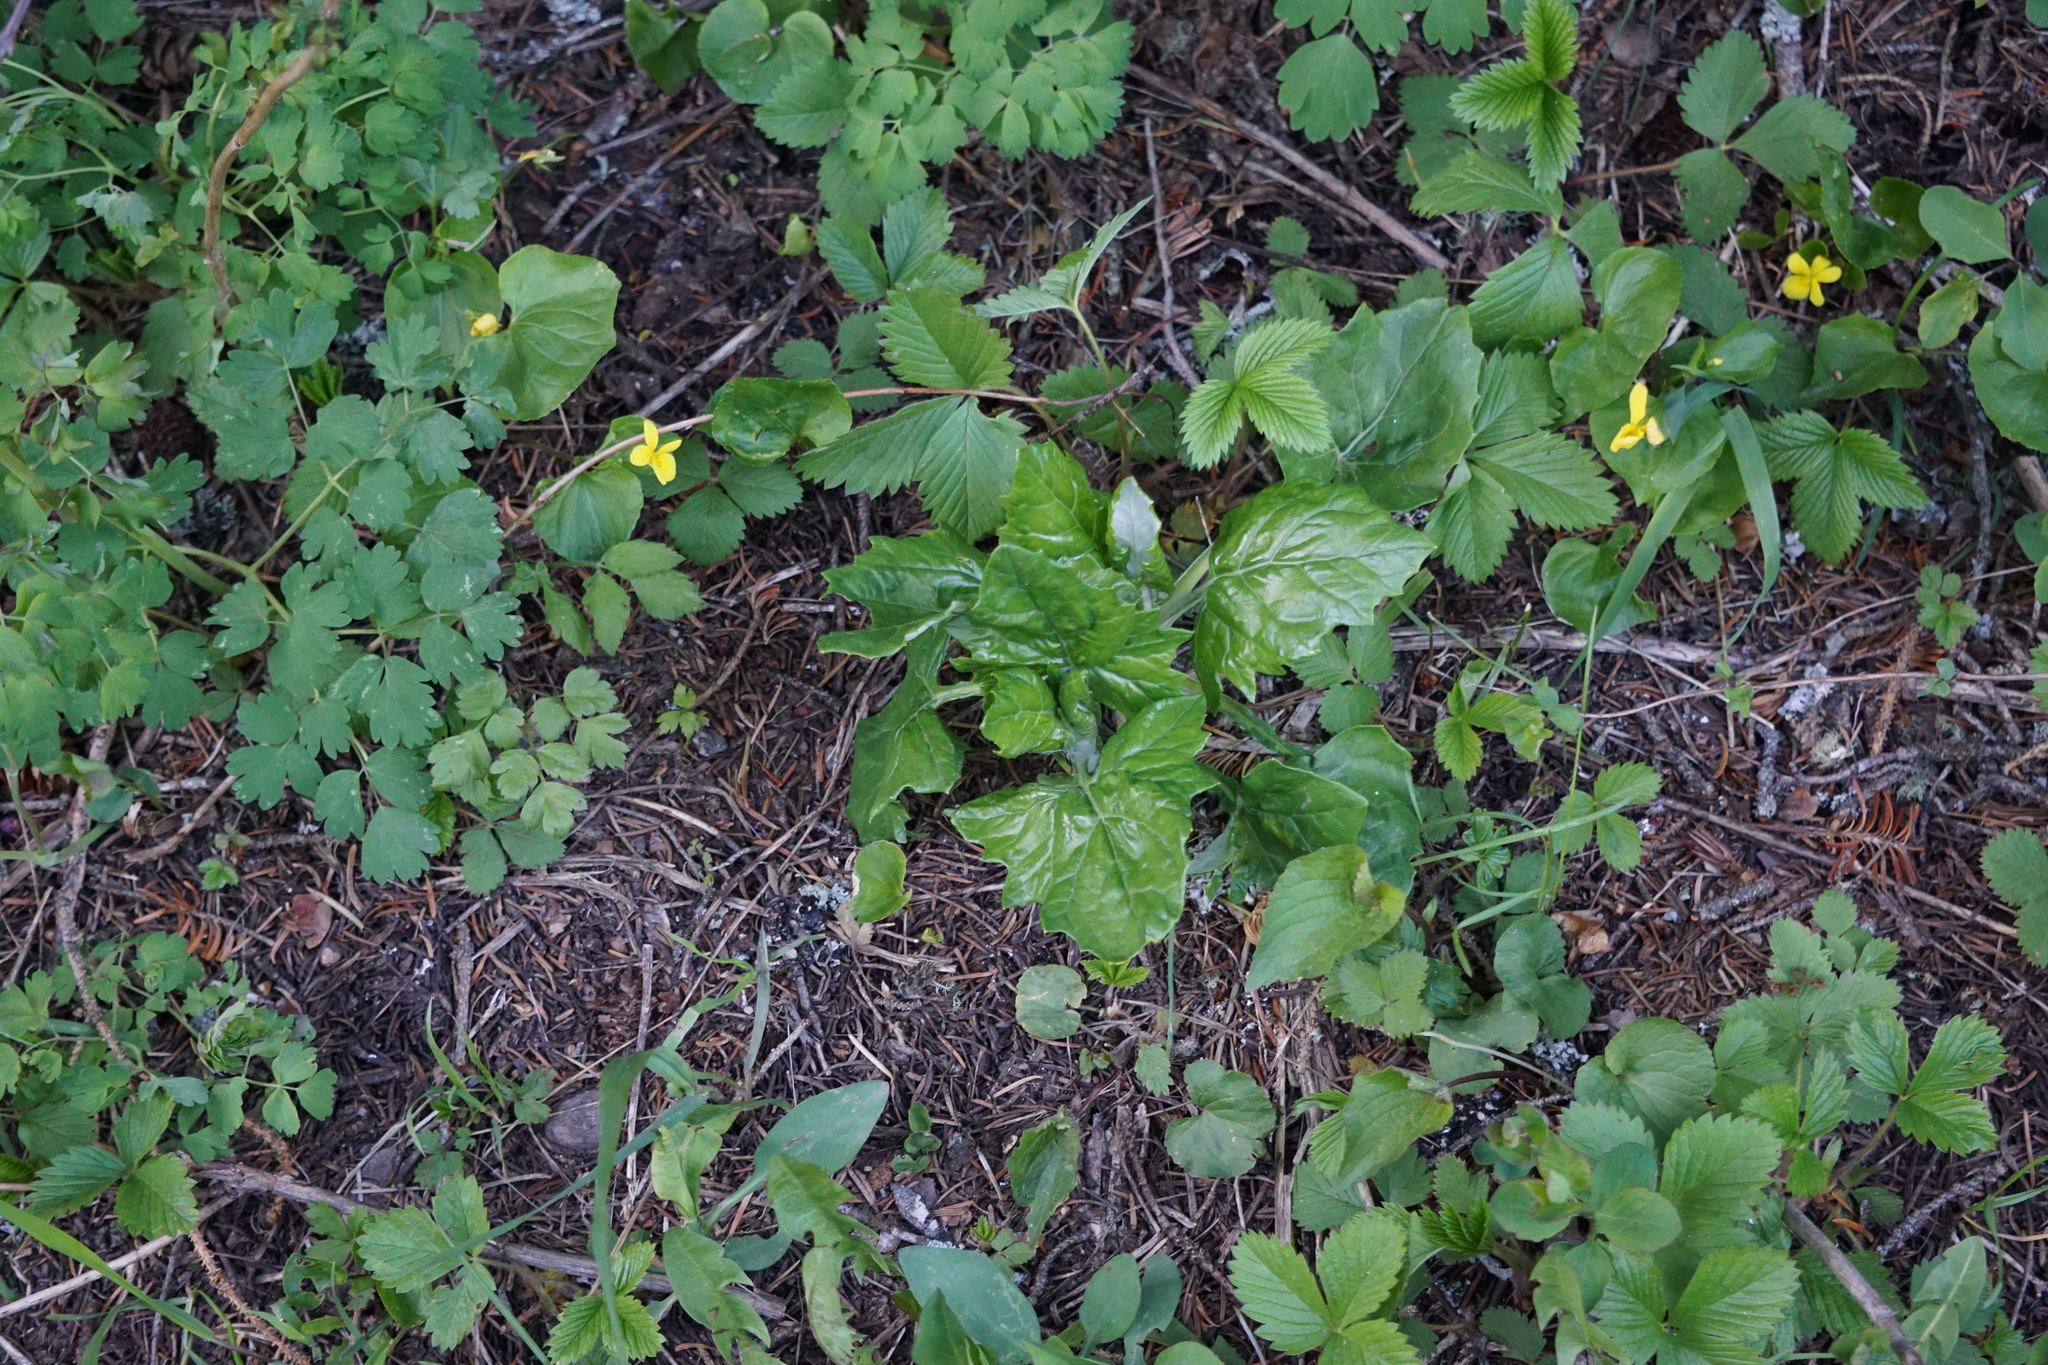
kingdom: Plantae
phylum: Tracheophyta
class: Magnoliopsida
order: Asterales
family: Asteraceae
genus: Adenocaulon
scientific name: Adenocaulon bicolor
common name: Trailplant
